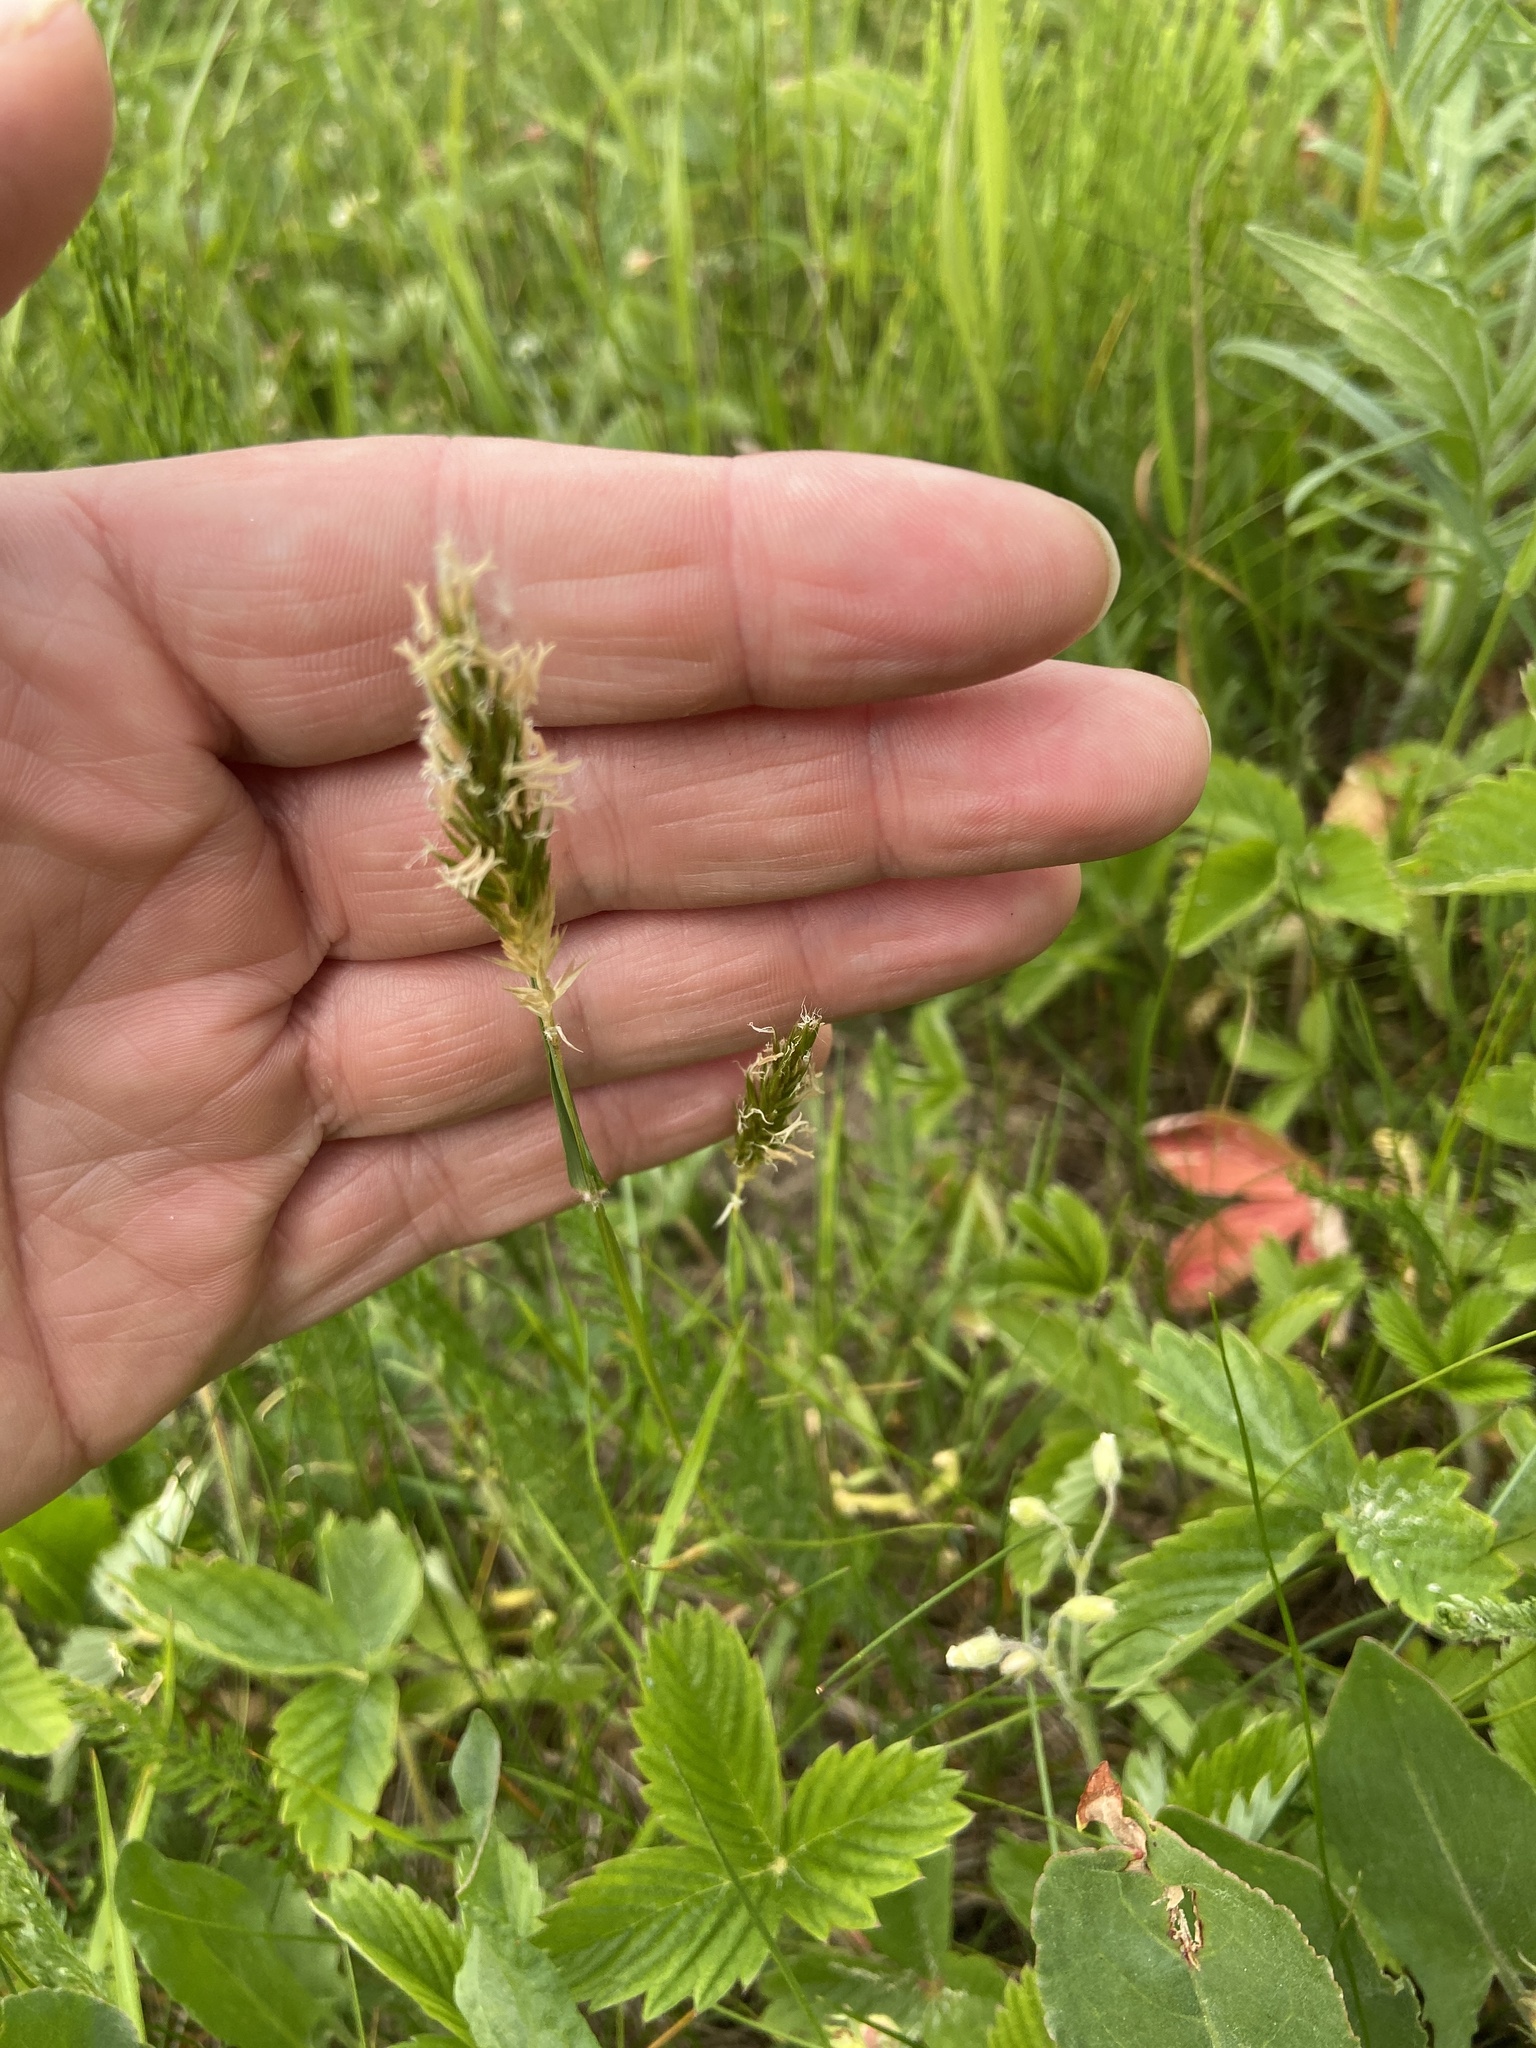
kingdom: Plantae
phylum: Tracheophyta
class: Liliopsida
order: Poales
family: Poaceae
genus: Anthoxanthum
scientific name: Anthoxanthum odoratum
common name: Sweet vernalgrass
